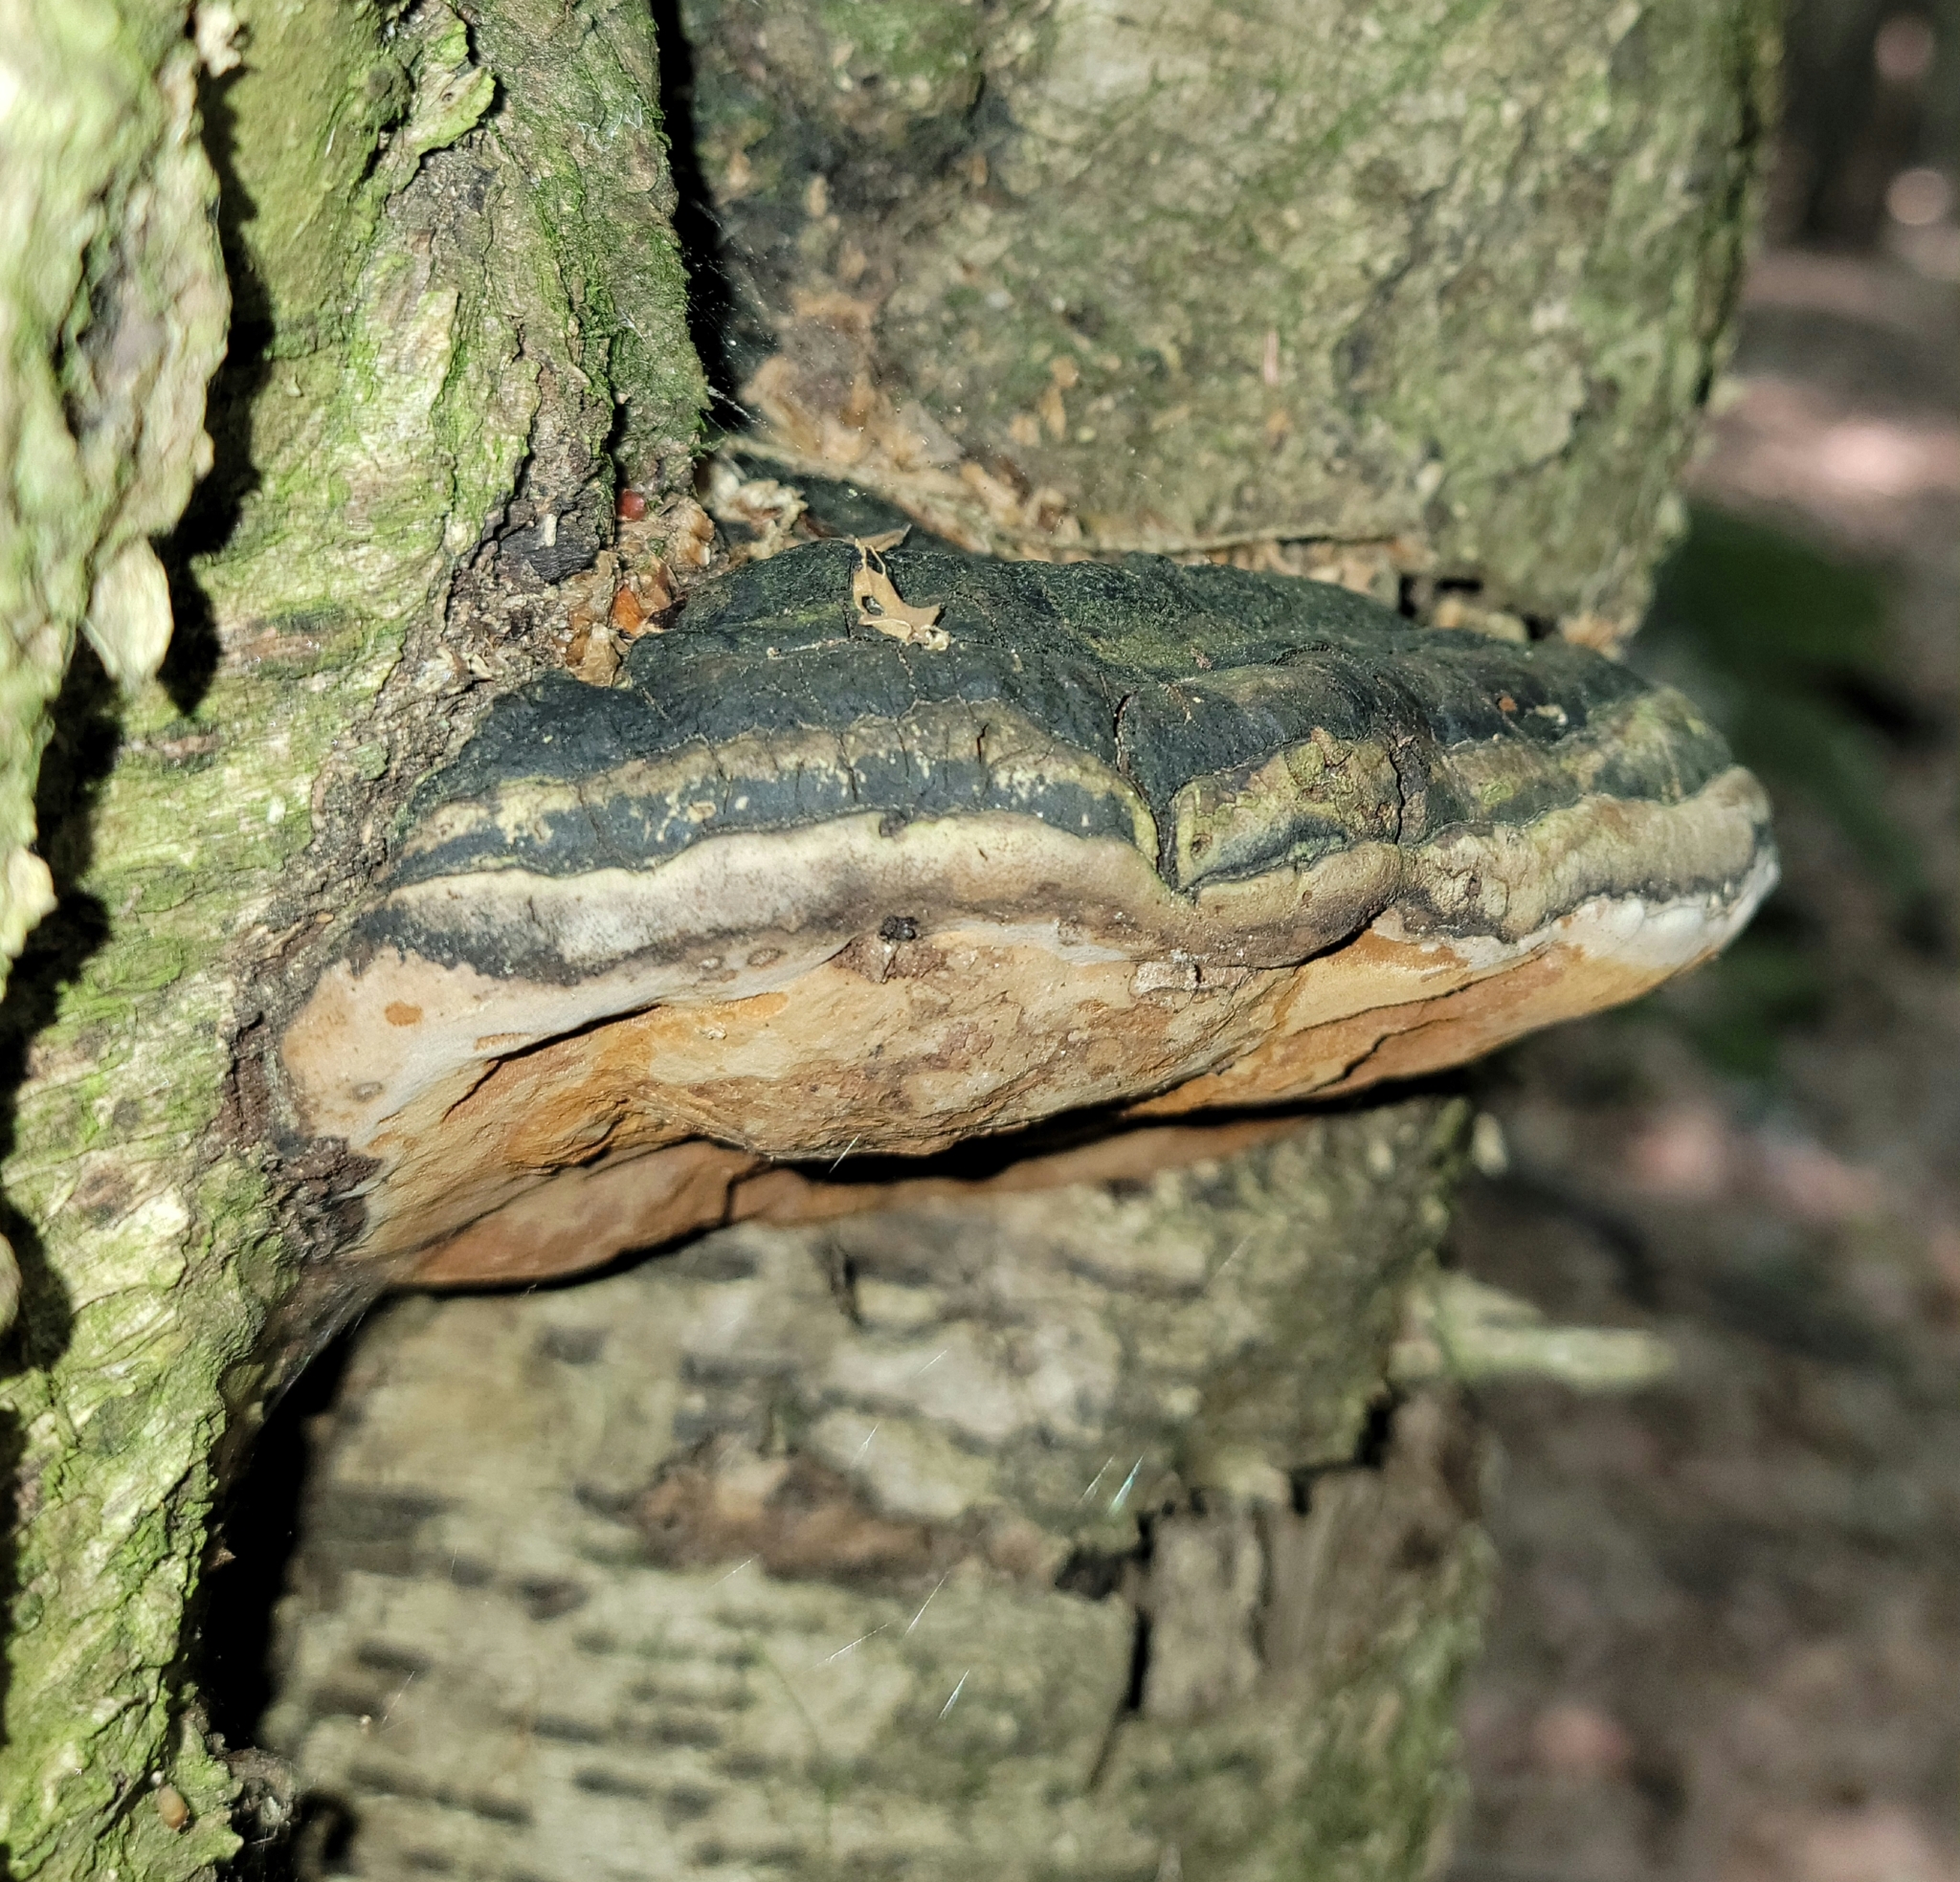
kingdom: Fungi
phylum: Basidiomycota
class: Agaricomycetes
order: Hymenochaetales
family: Hymenochaetaceae
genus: Phellinus
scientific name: Phellinus populicola
